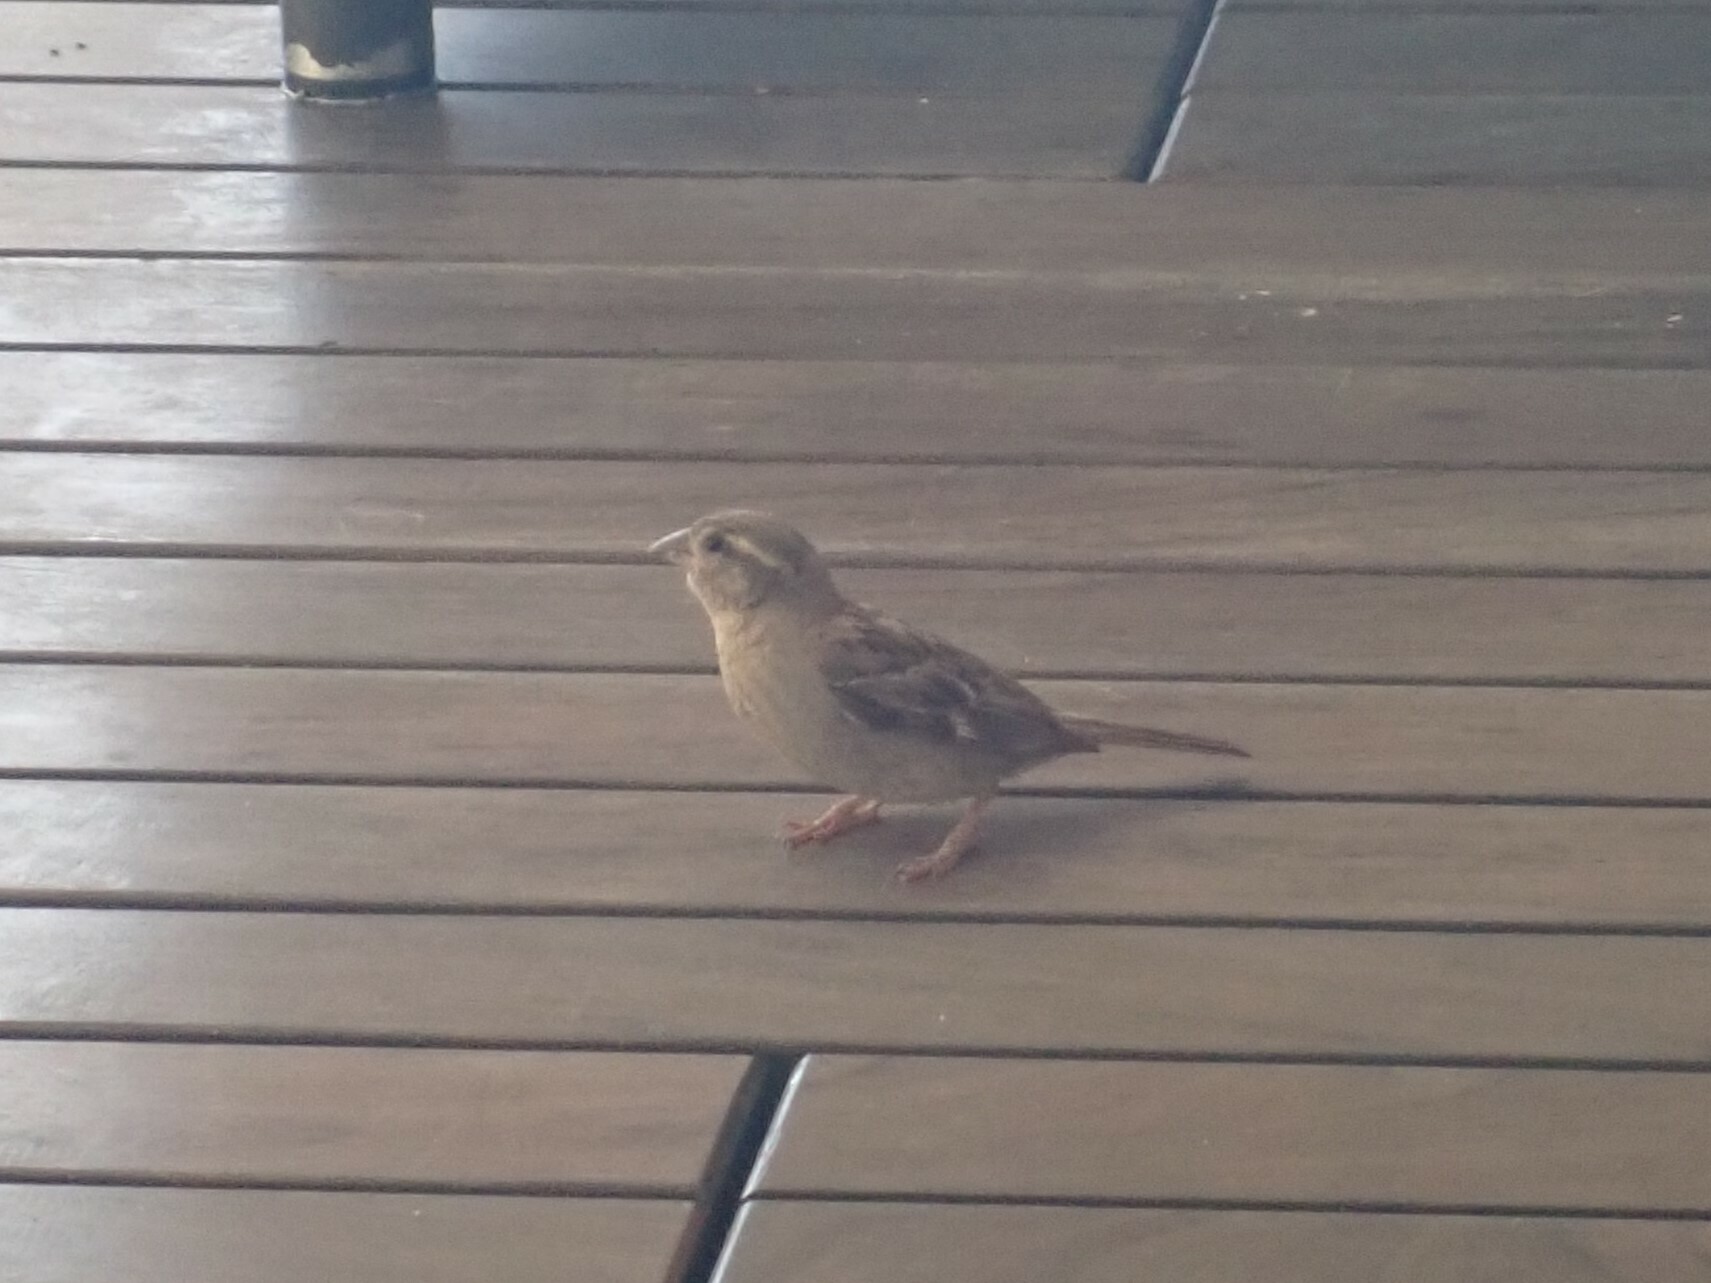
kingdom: Animalia
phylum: Chordata
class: Aves
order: Passeriformes
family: Passeridae
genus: Passer
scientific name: Passer domesticus
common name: House sparrow
